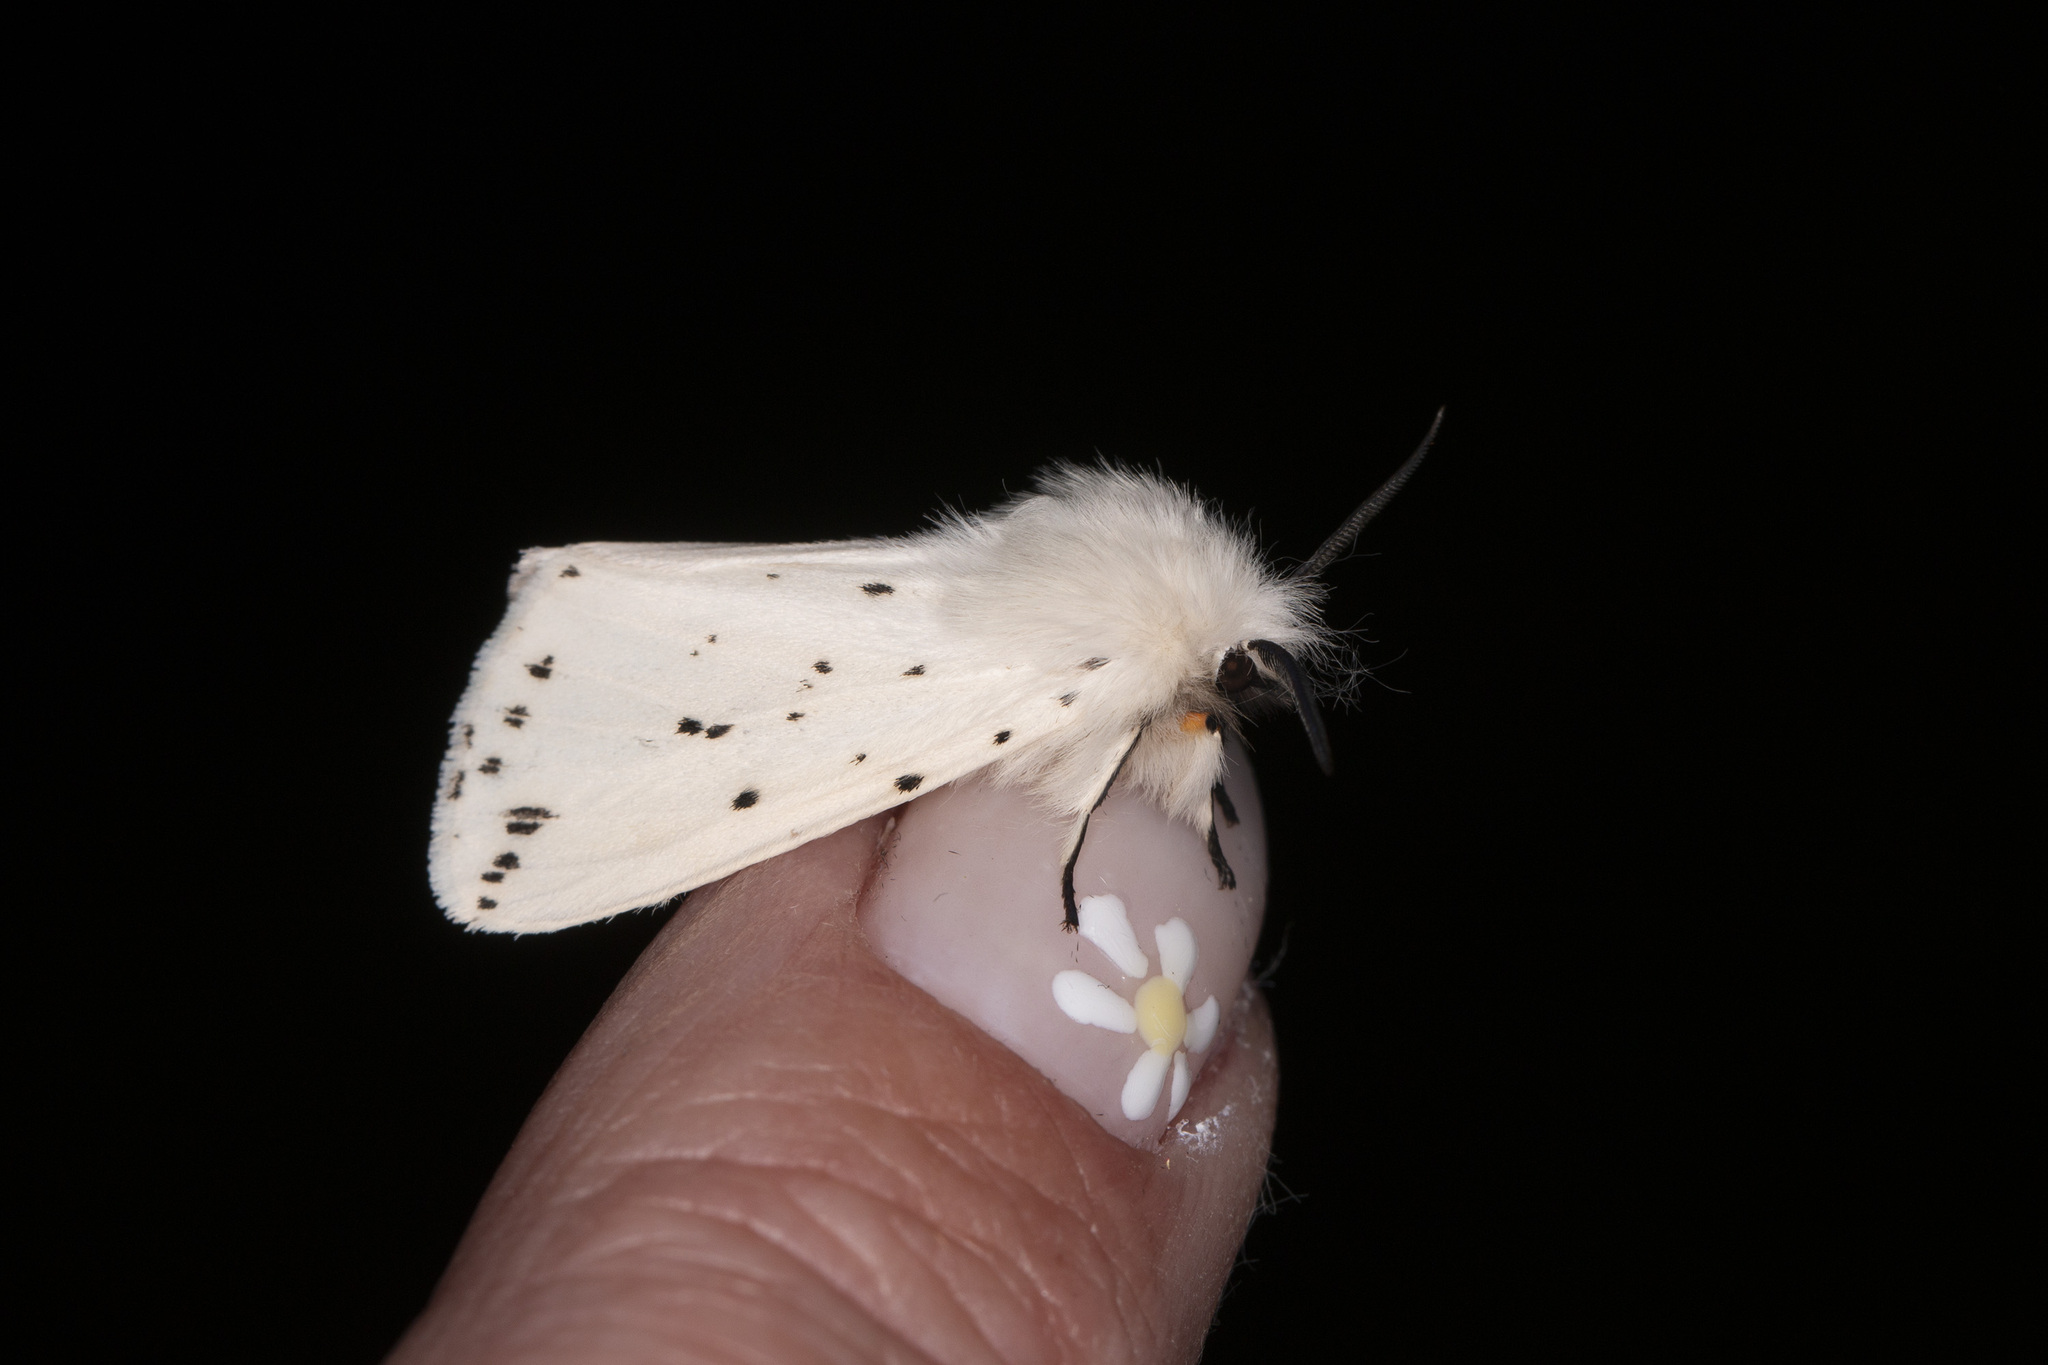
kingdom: Animalia
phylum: Arthropoda
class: Insecta
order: Lepidoptera
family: Erebidae
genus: Spilosoma
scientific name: Spilosoma lubricipeda
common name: White ermine
